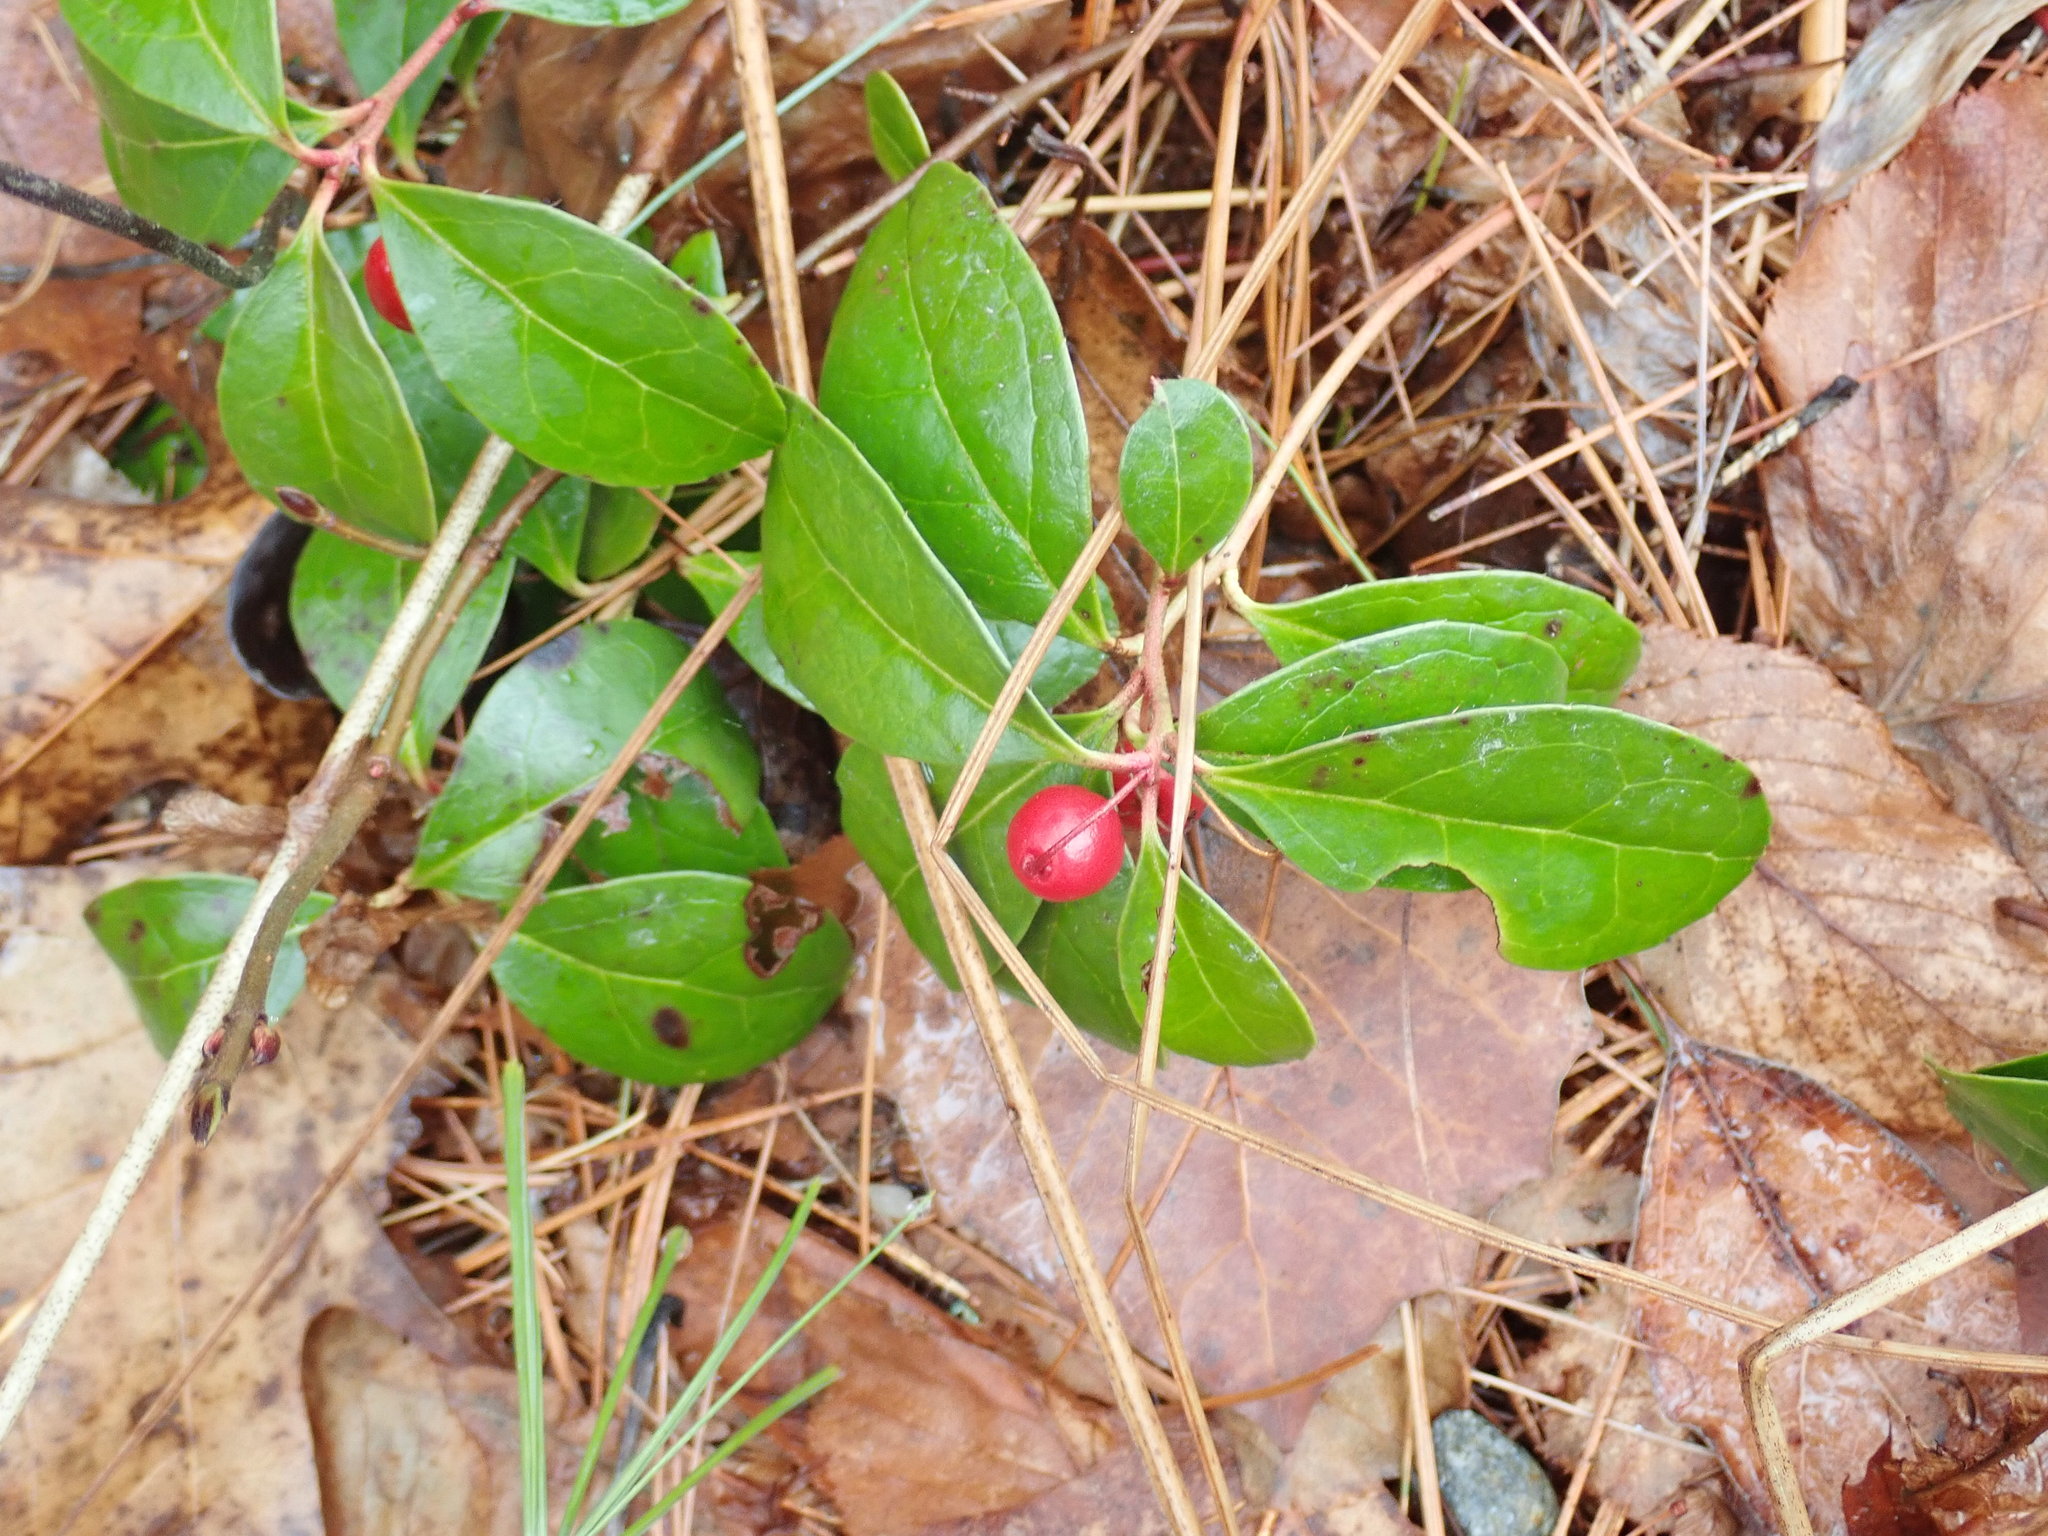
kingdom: Plantae
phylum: Tracheophyta
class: Magnoliopsida
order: Ericales
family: Ericaceae
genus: Gaultheria
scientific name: Gaultheria procumbens
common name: Checkerberry
